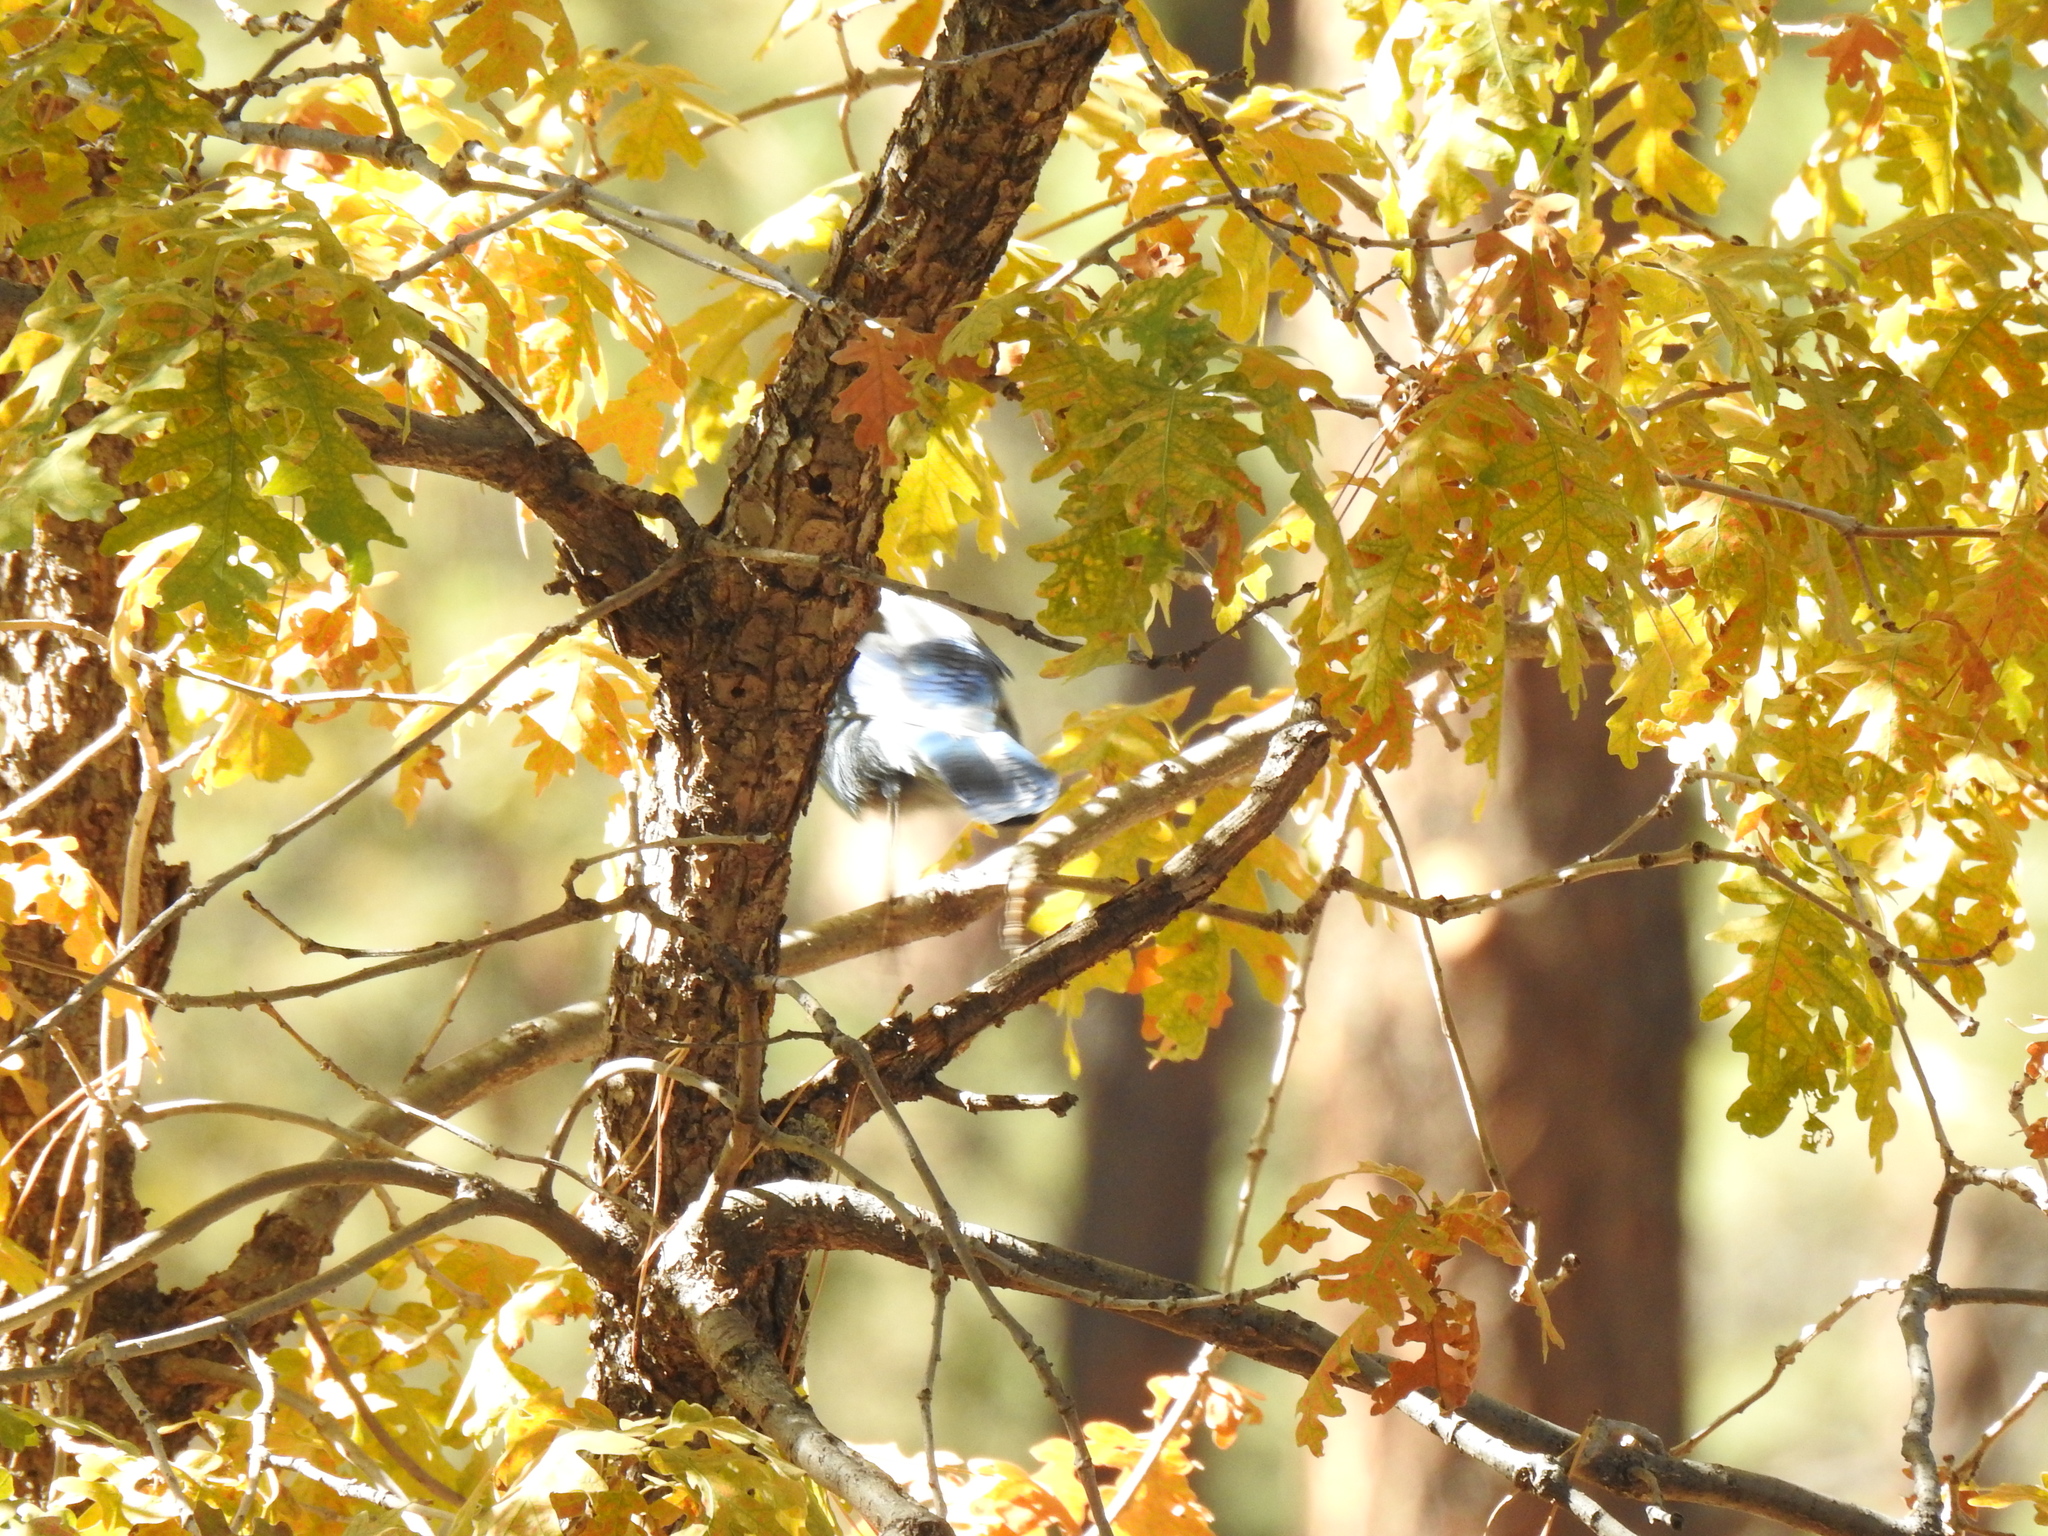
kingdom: Animalia
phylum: Chordata
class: Aves
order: Passeriformes
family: Corvidae
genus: Cyanocitta
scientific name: Cyanocitta stelleri
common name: Steller's jay
